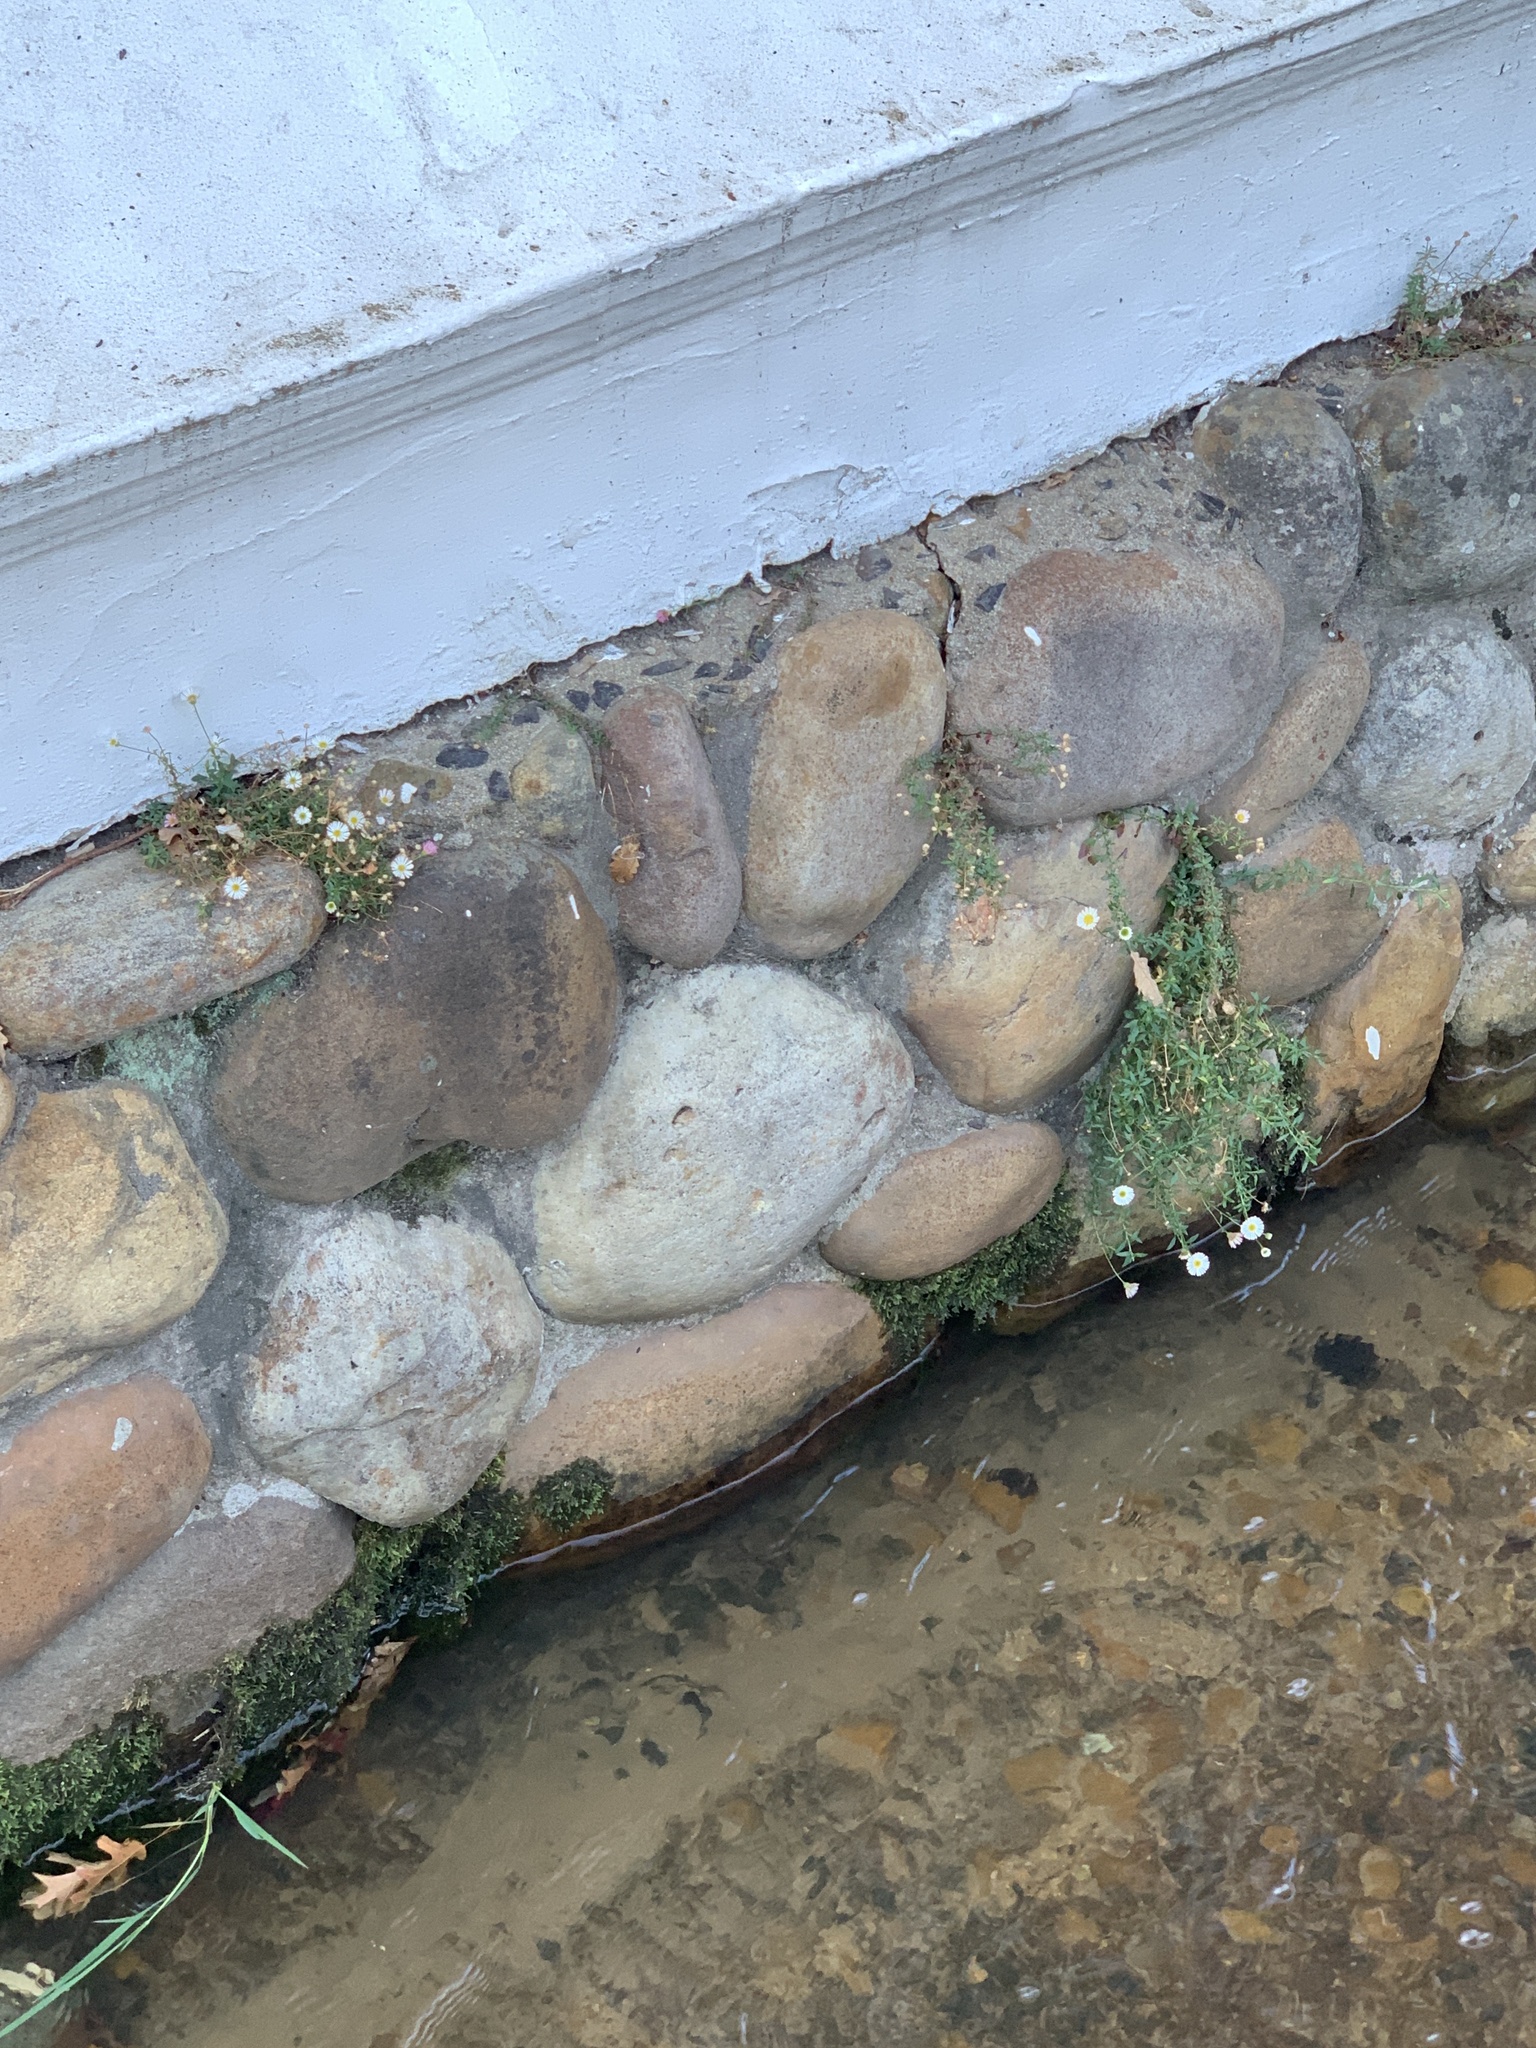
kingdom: Plantae
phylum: Tracheophyta
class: Magnoliopsida
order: Asterales
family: Asteraceae
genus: Erigeron
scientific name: Erigeron karvinskianus
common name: Mexican fleabane
